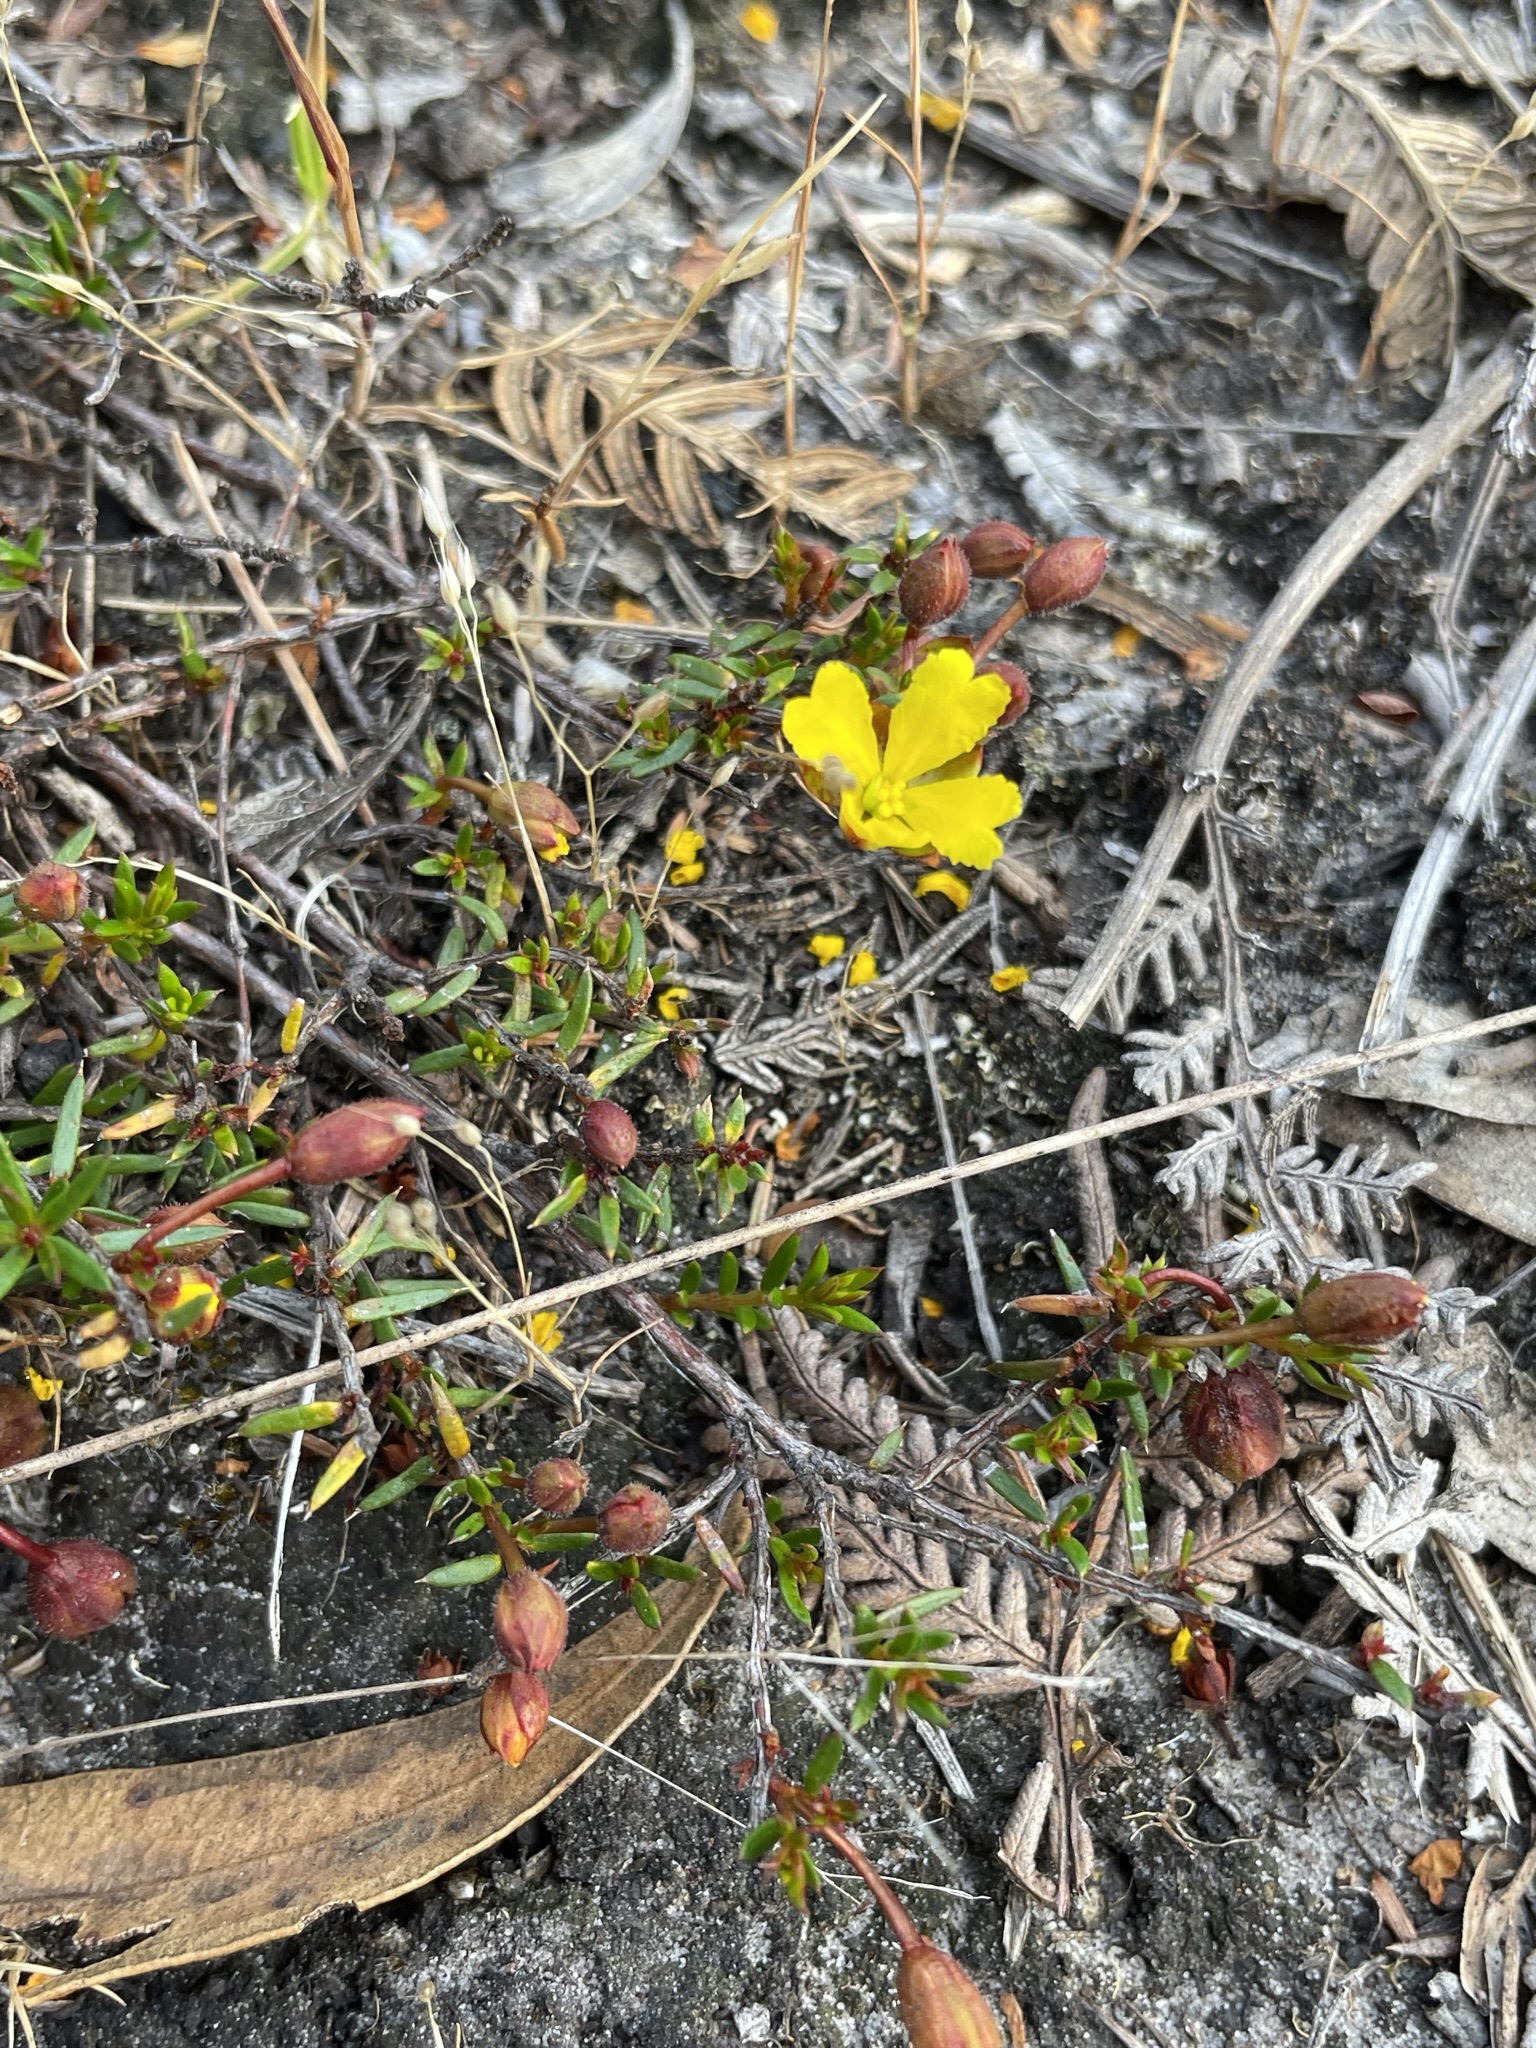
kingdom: Plantae
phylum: Tracheophyta
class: Magnoliopsida
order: Dilleniales
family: Dilleniaceae
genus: Hibbertia
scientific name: Hibbertia acicularis
